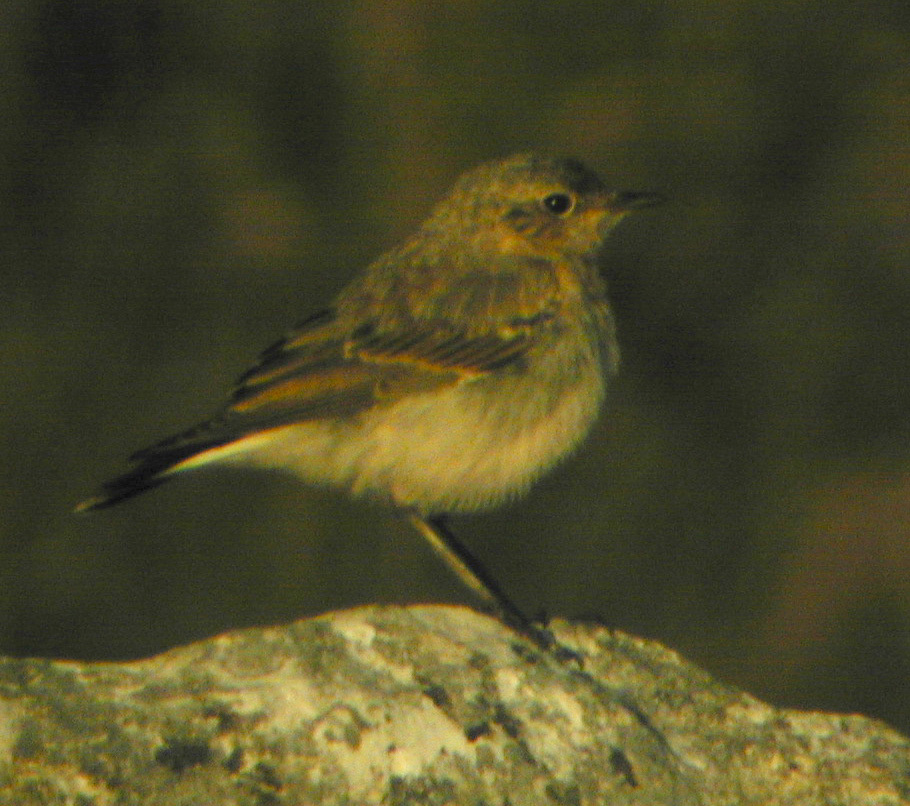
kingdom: Animalia
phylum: Chordata
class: Aves
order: Passeriformes
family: Muscicapidae
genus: Oenanthe
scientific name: Oenanthe oenanthe
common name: Northern wheatear
